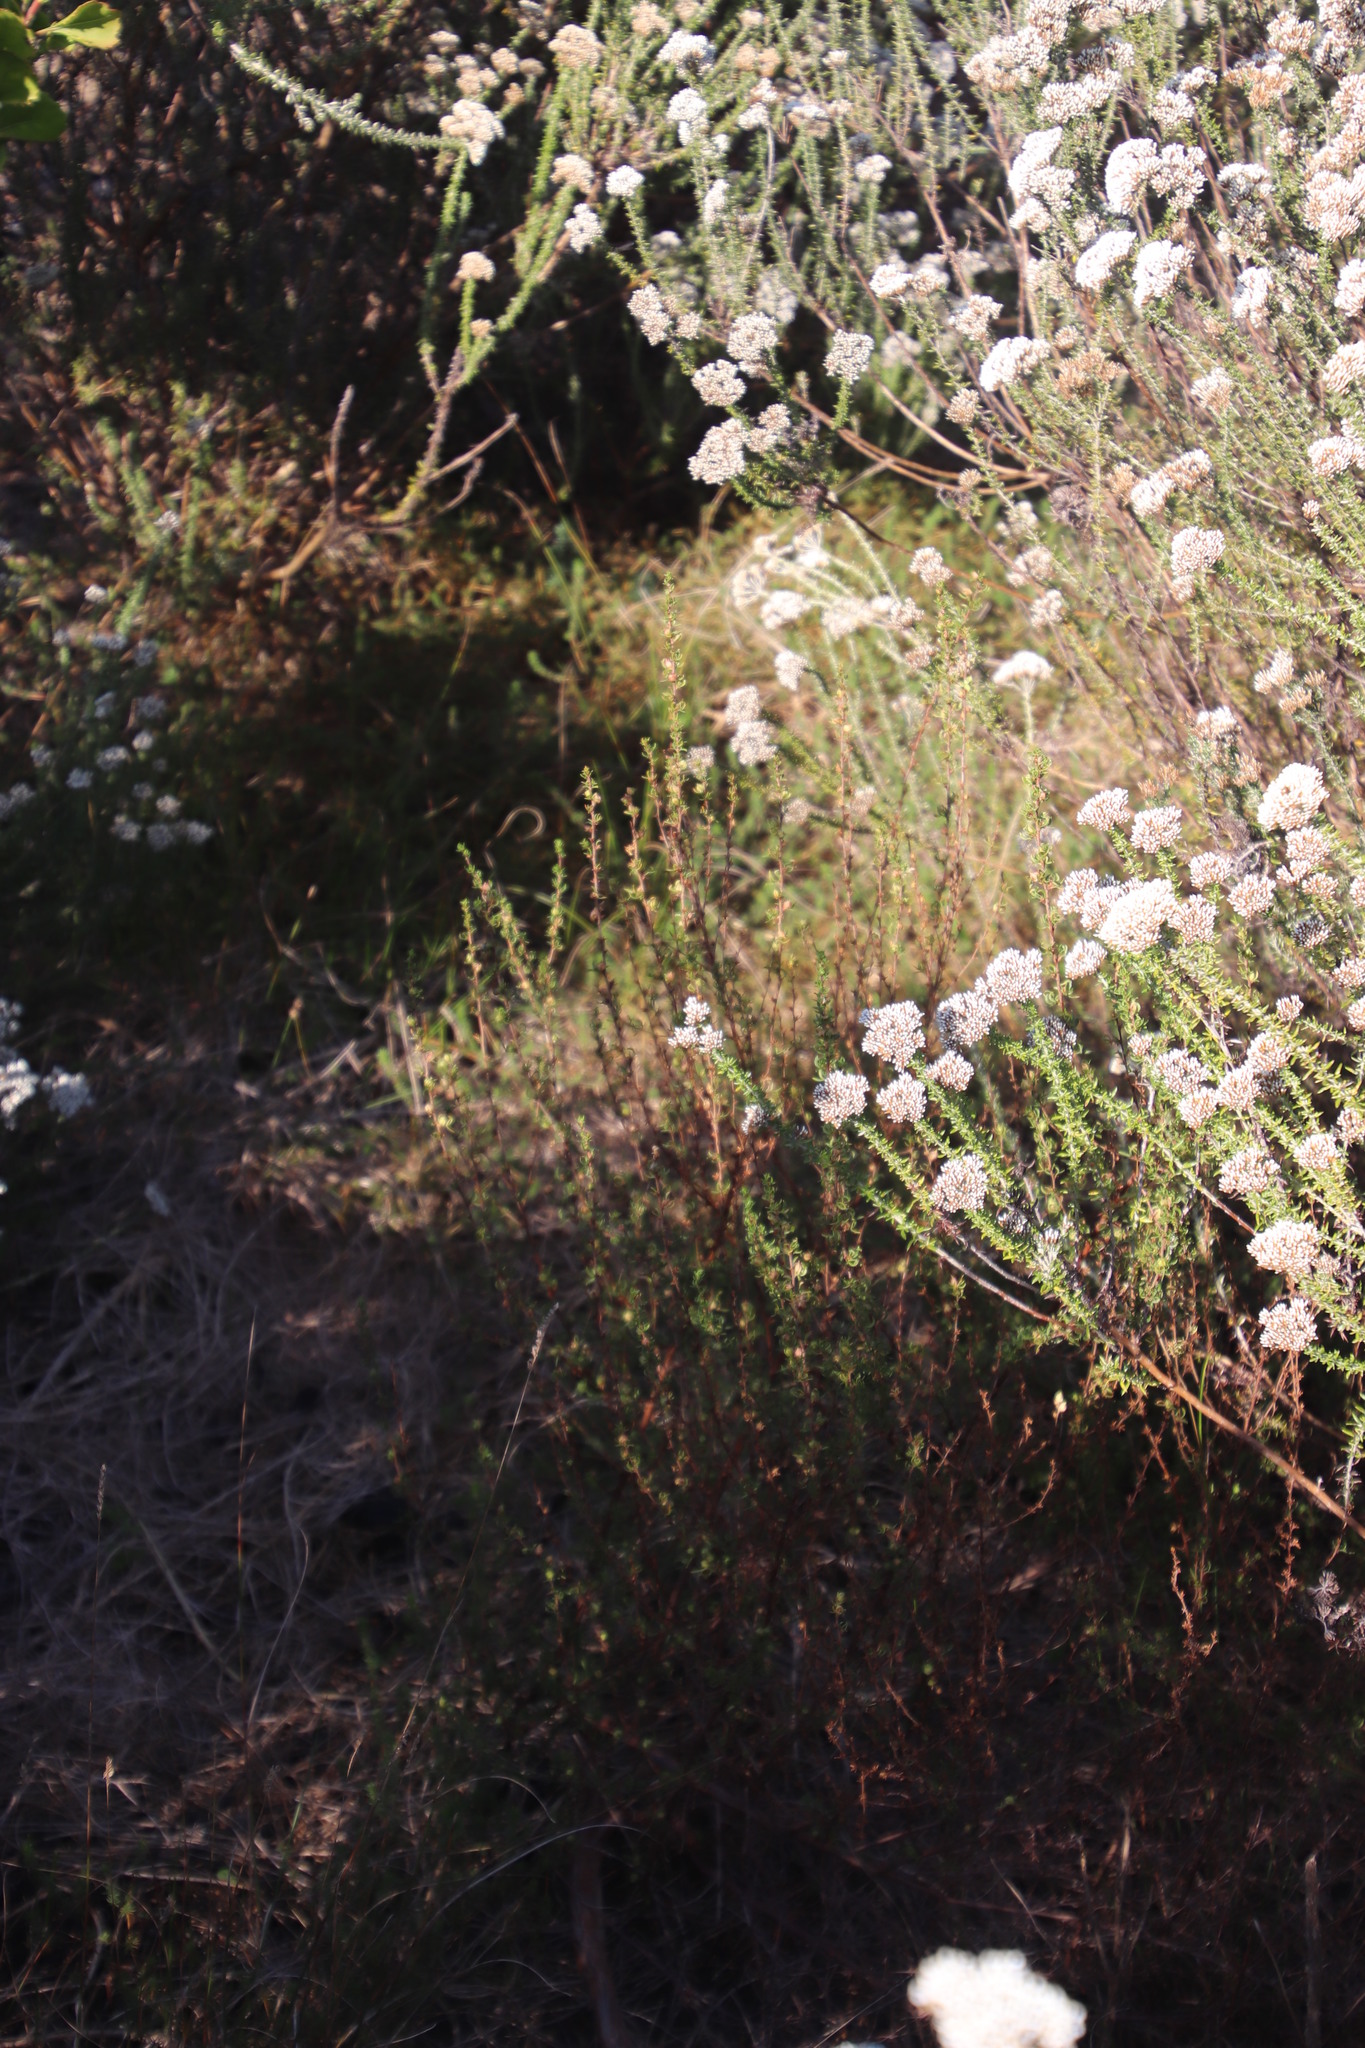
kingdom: Plantae
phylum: Tracheophyta
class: Magnoliopsida
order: Rosales
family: Rosaceae
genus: Cliffortia
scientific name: Cliffortia falcata
